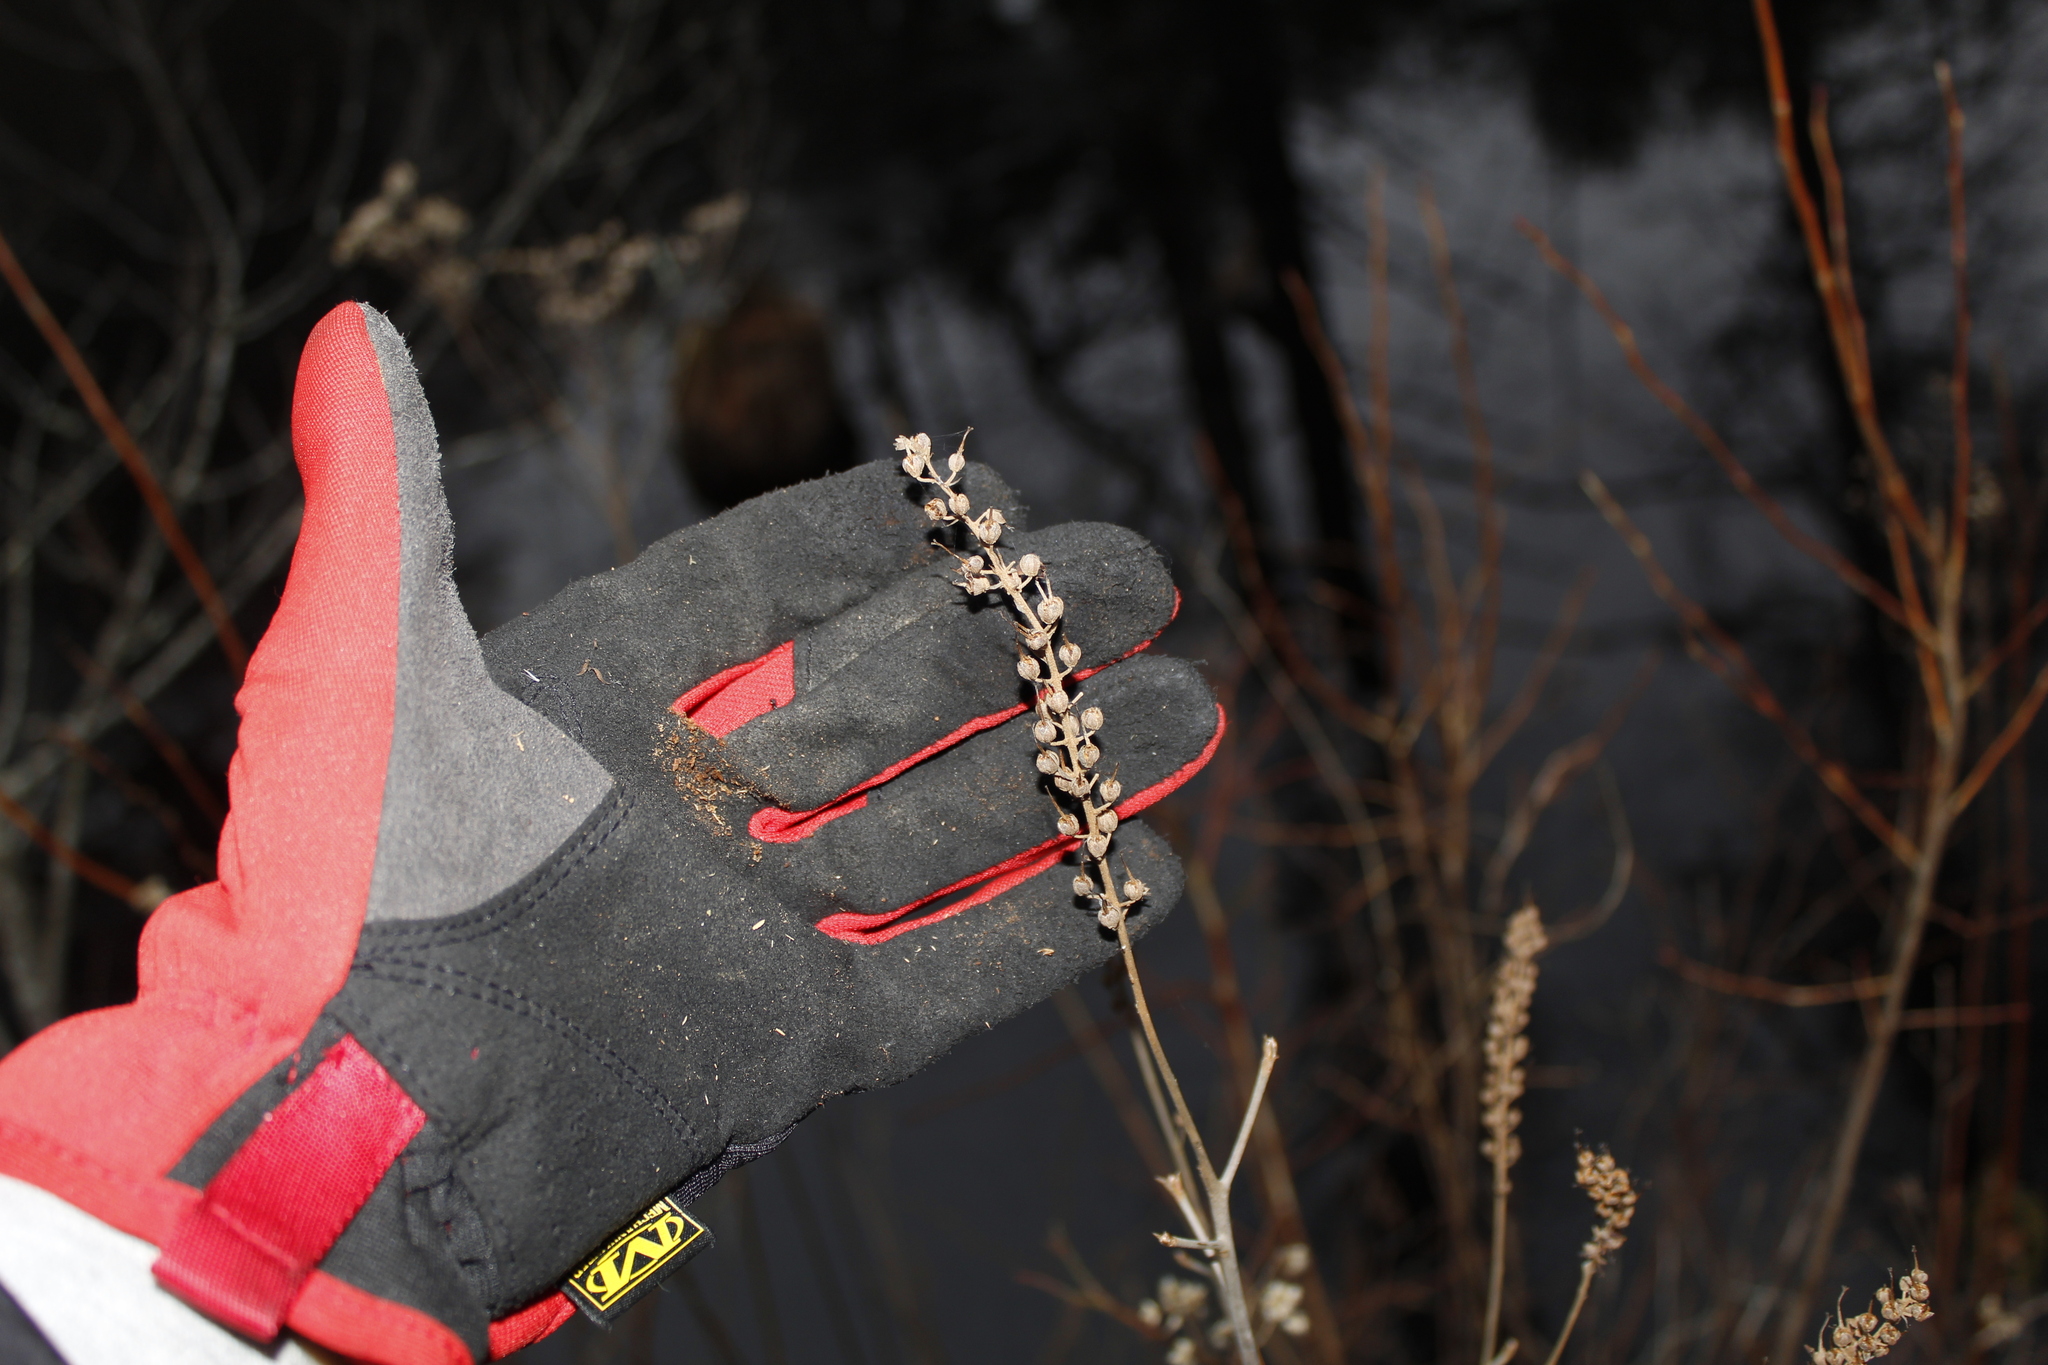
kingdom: Plantae
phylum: Tracheophyta
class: Magnoliopsida
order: Ericales
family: Clethraceae
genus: Clethra
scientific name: Clethra alnifolia
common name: Sweet pepperbush
